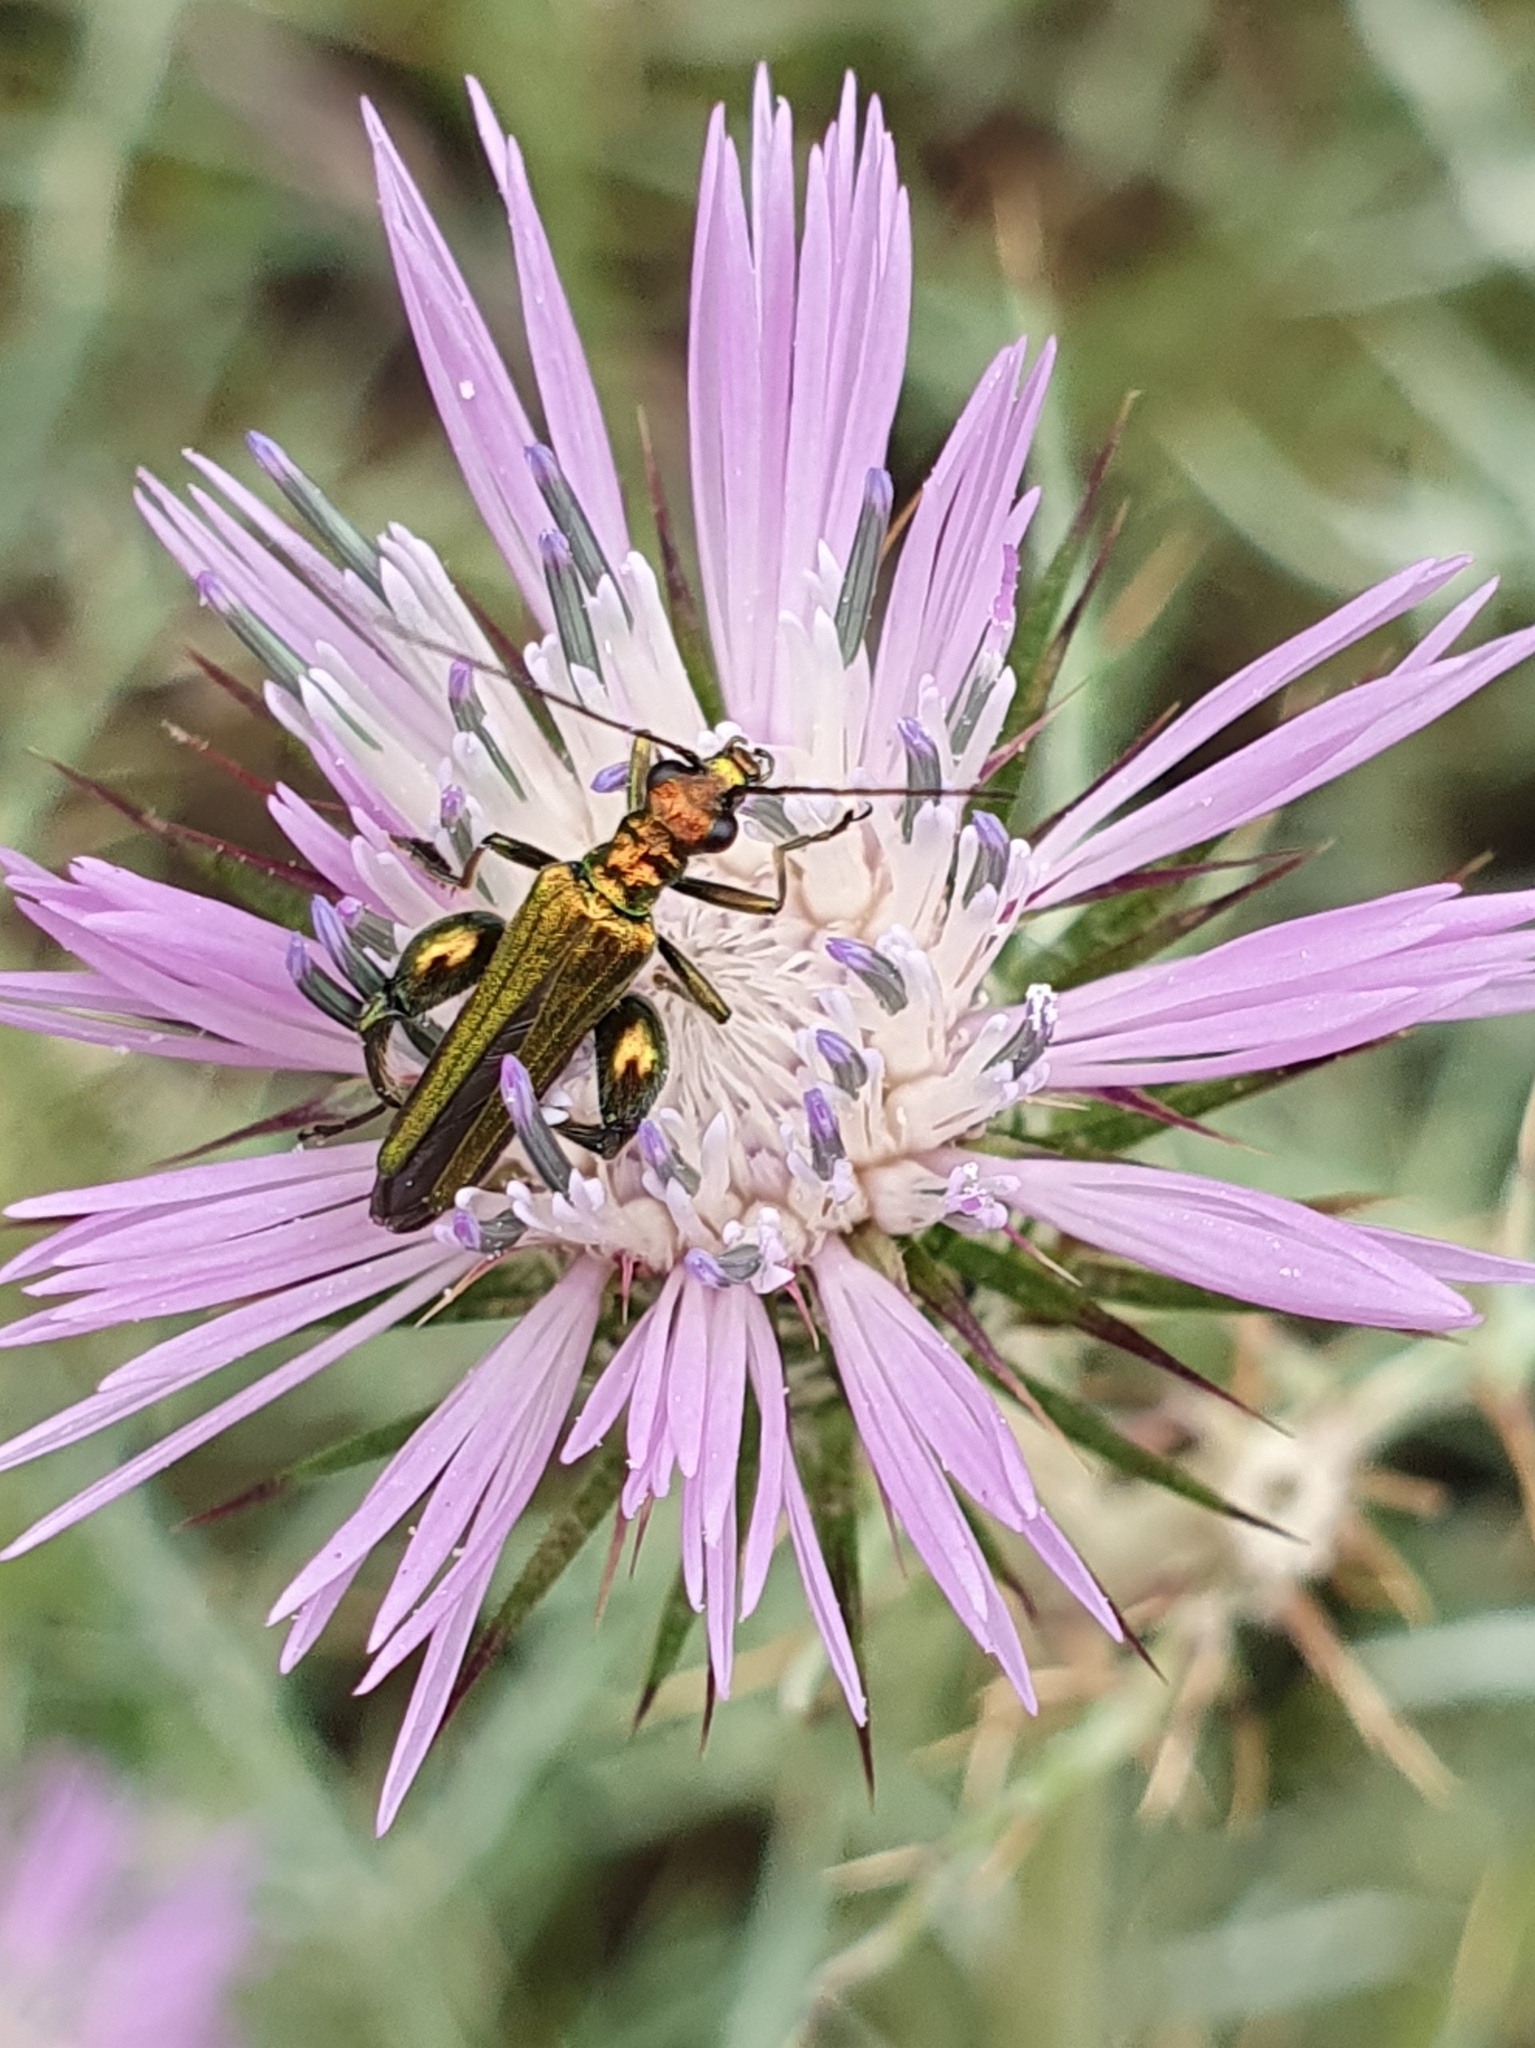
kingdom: Animalia
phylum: Arthropoda
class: Insecta
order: Coleoptera
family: Oedemeridae
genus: Oedemera
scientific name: Oedemera nobilis
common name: Swollen-thighed beetle
